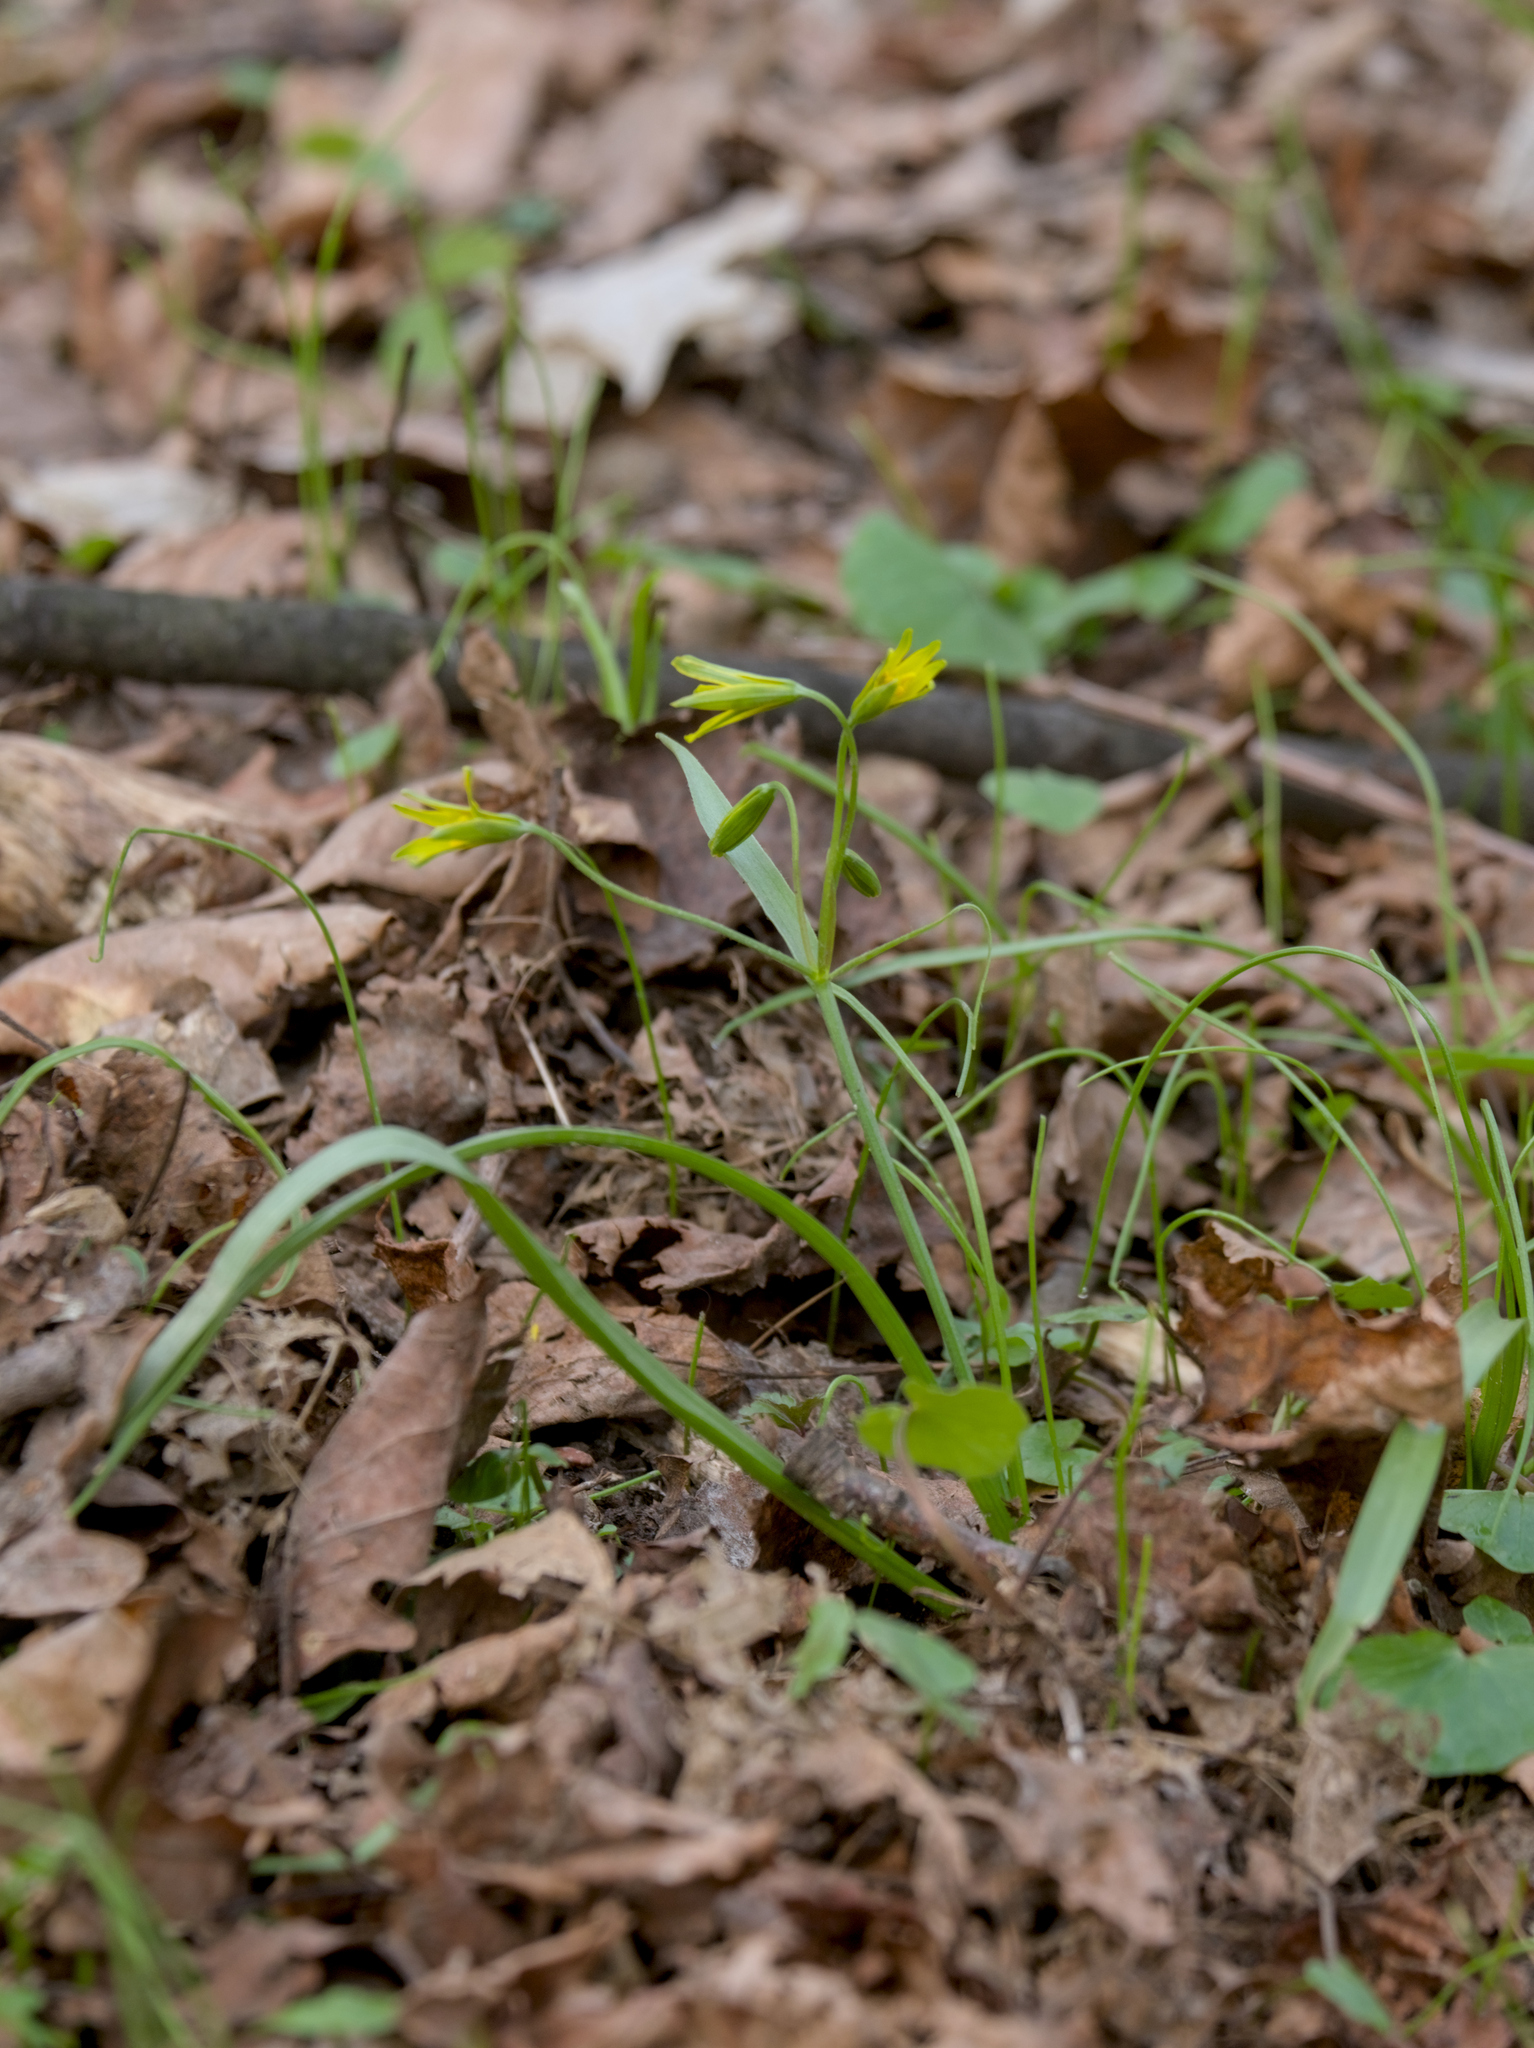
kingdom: Plantae
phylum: Tracheophyta
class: Liliopsida
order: Liliales
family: Liliaceae
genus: Gagea
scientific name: Gagea lutea
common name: Yellow star-of-bethlehem
